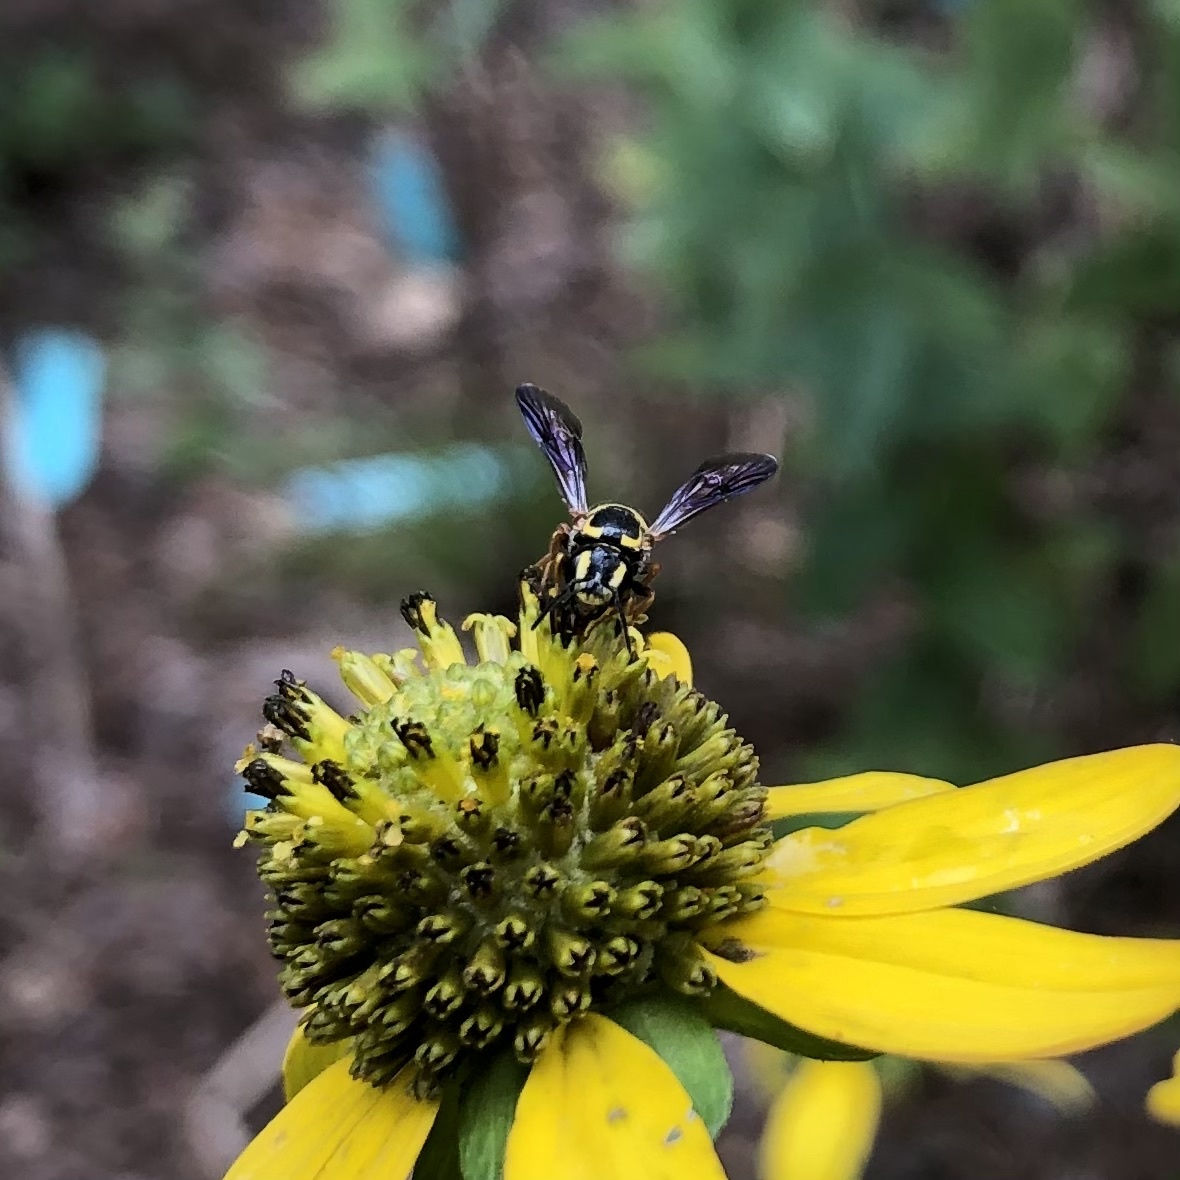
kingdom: Animalia
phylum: Arthropoda
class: Insecta
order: Hymenoptera
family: Megachilidae
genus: Stelis
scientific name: Stelis louisae
